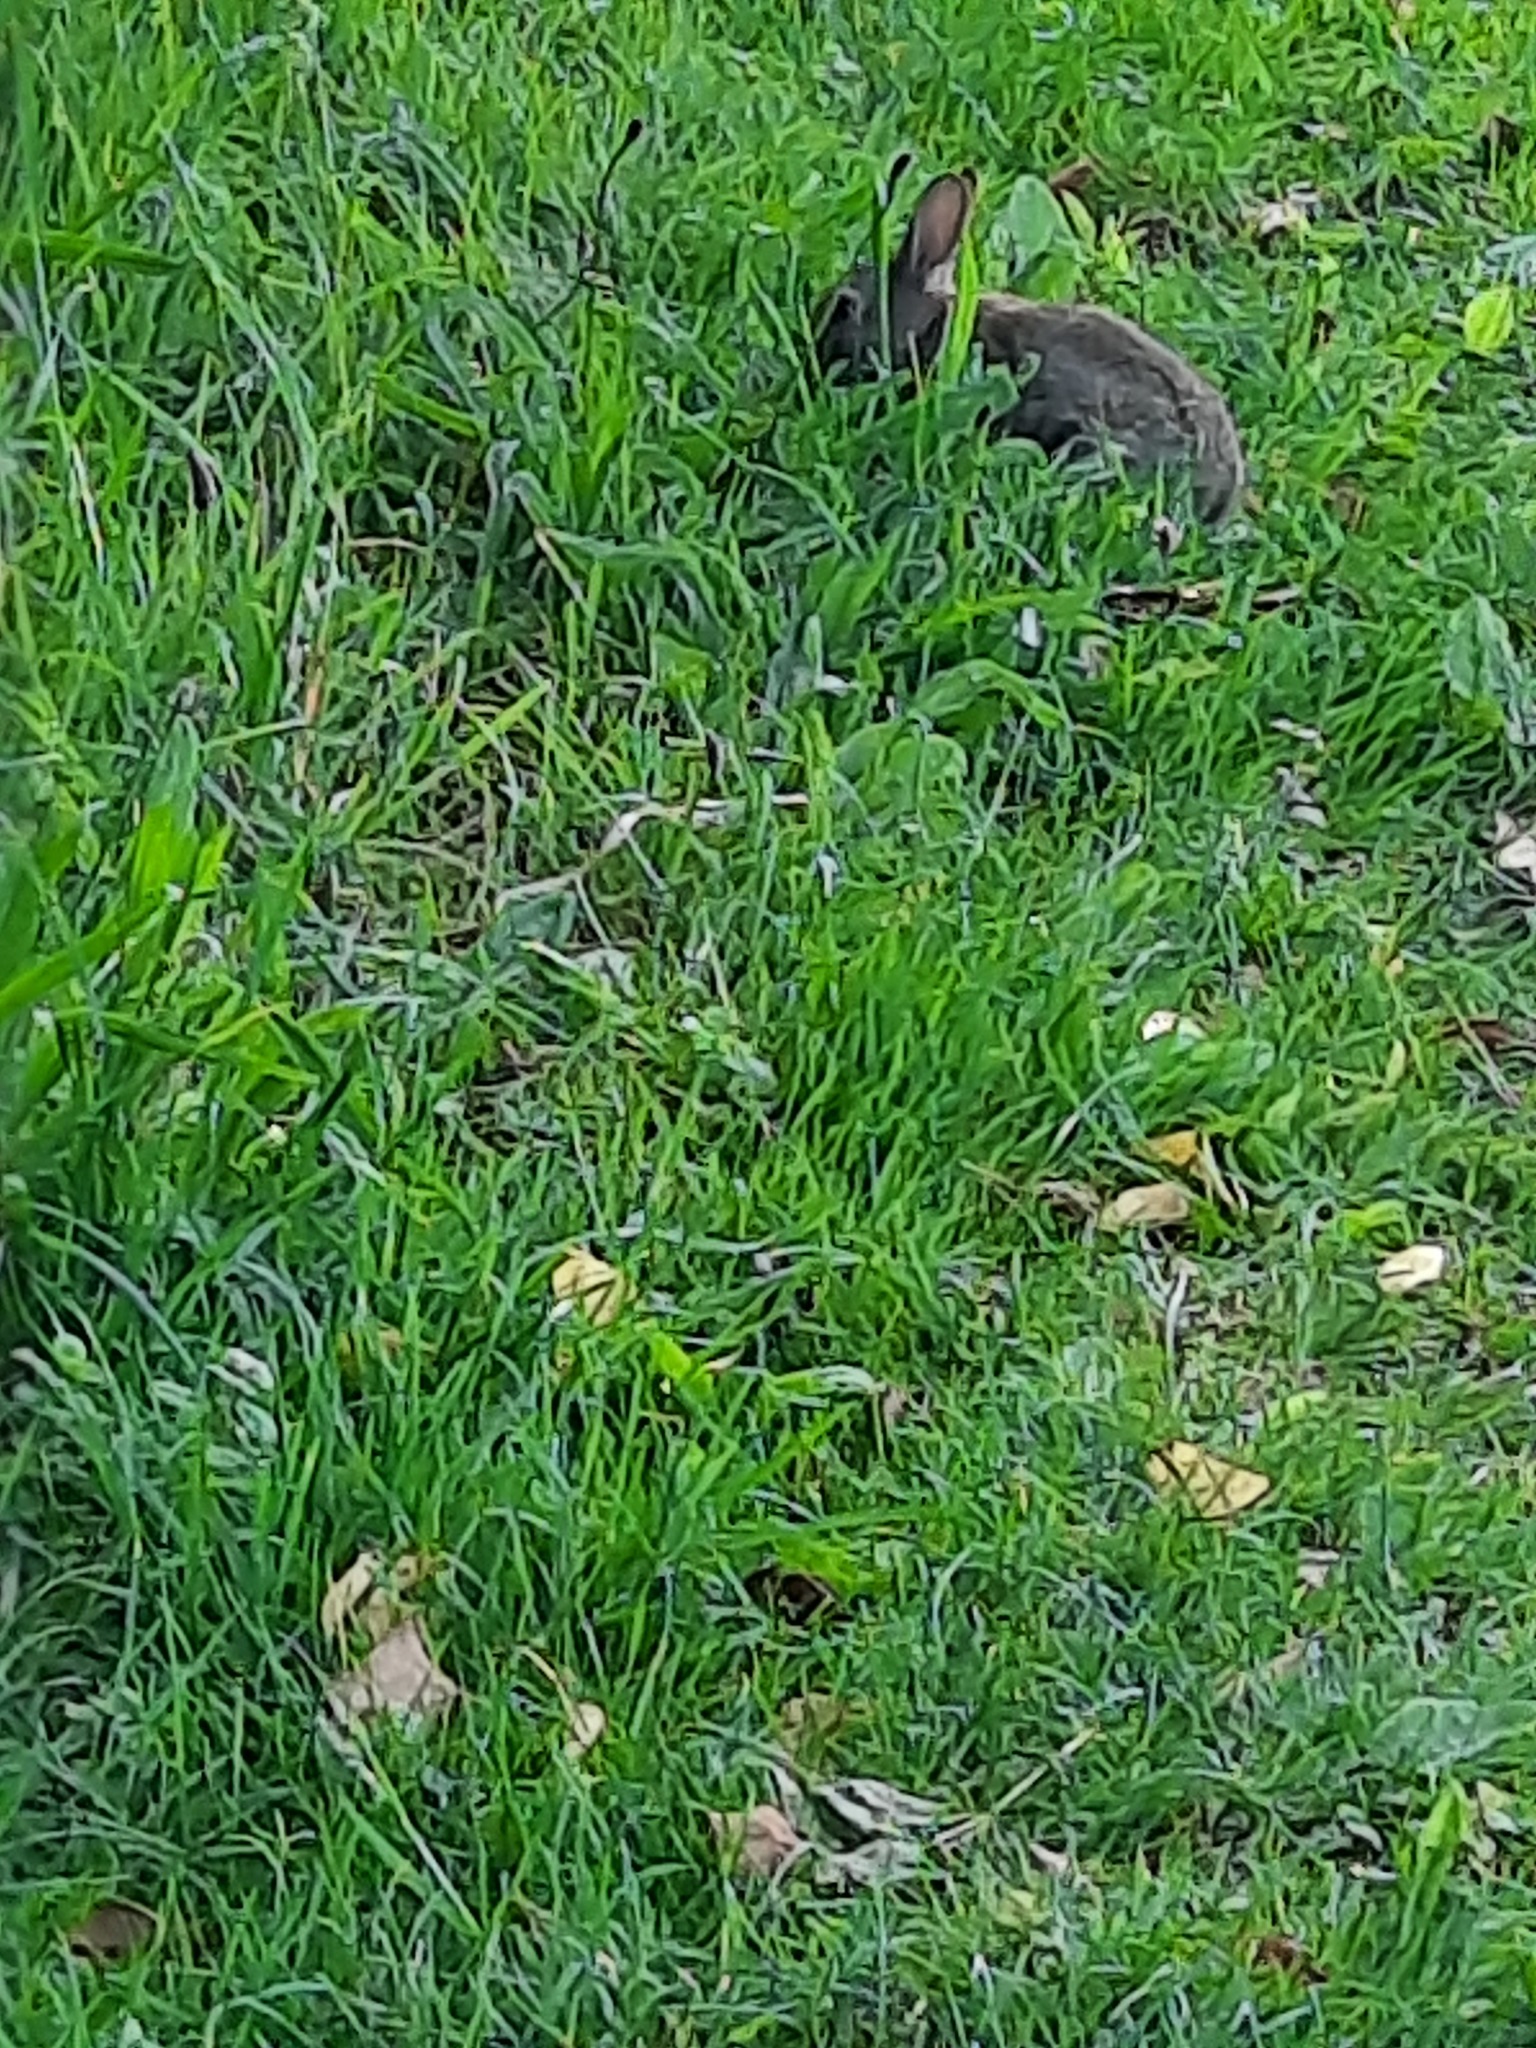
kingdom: Animalia
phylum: Chordata
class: Mammalia
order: Lagomorpha
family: Leporidae
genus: Oryctolagus
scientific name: Oryctolagus cuniculus
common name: European rabbit
